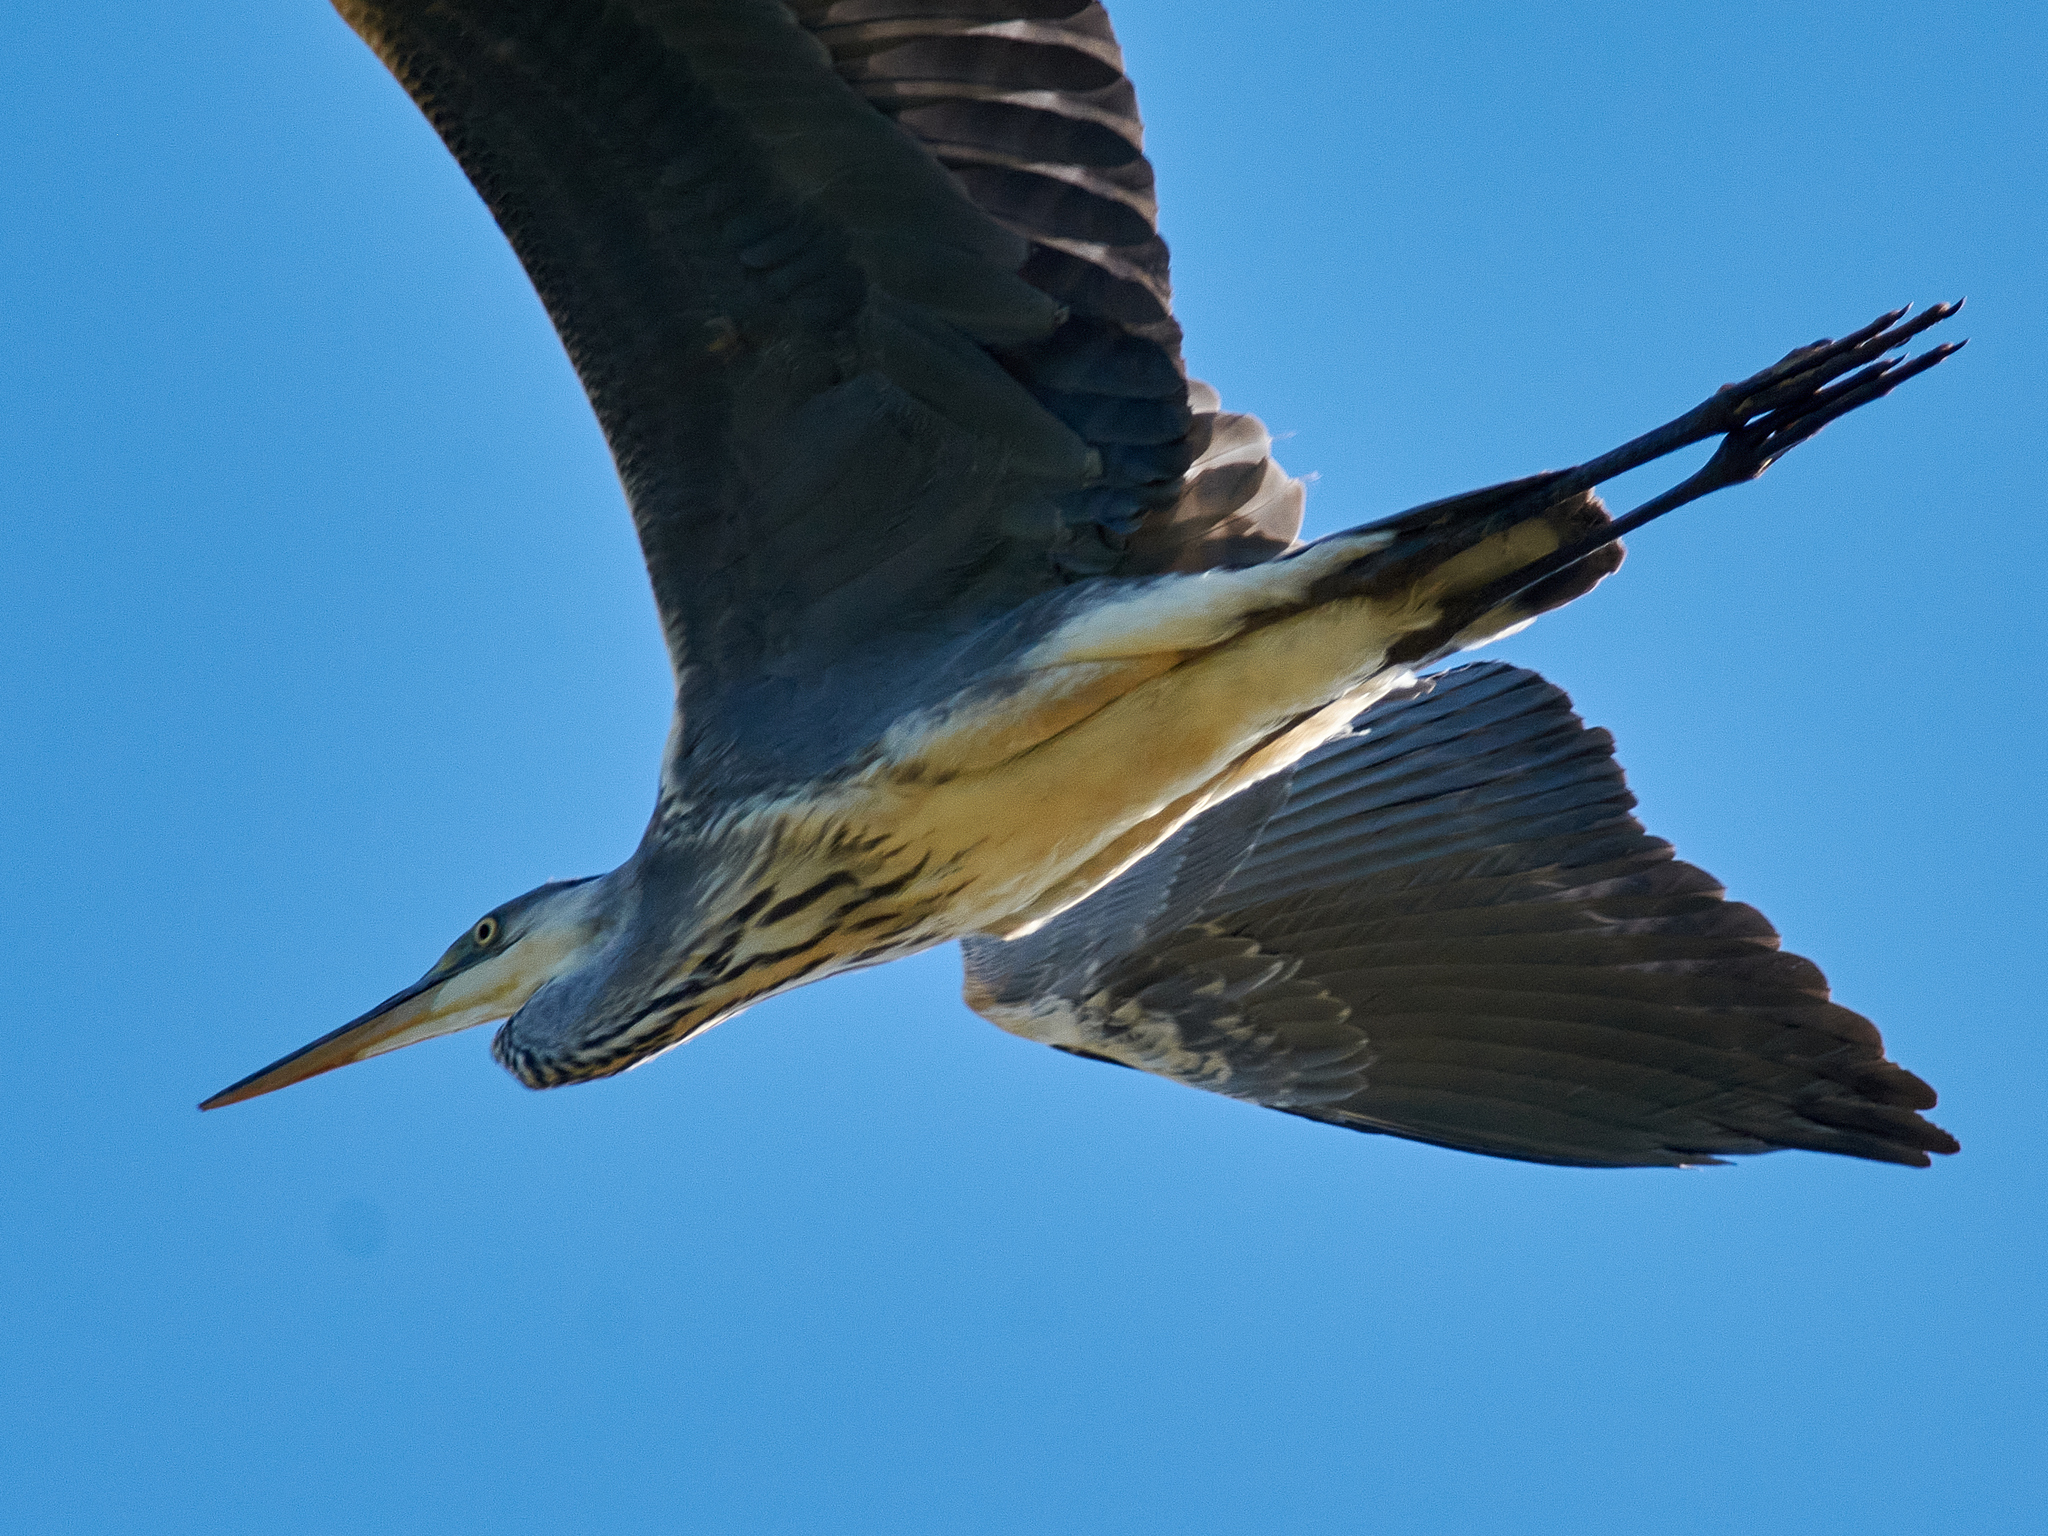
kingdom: Animalia
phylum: Chordata
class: Aves
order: Pelecaniformes
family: Ardeidae
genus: Ardea
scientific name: Ardea cinerea
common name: Grey heron
